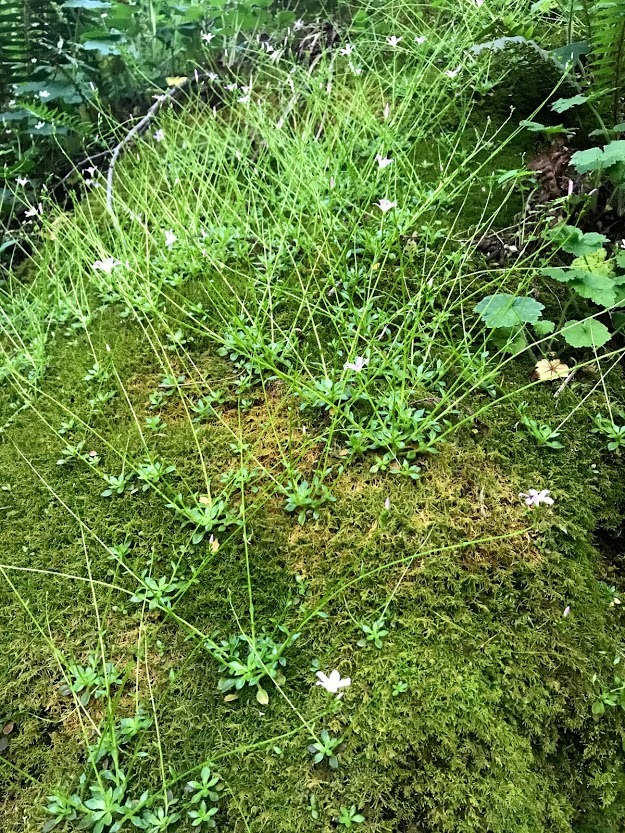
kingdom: Plantae
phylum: Tracheophyta
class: Magnoliopsida
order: Caryophyllales
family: Montiaceae
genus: Montia
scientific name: Montia parvifolia
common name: Small-leaved blinks
